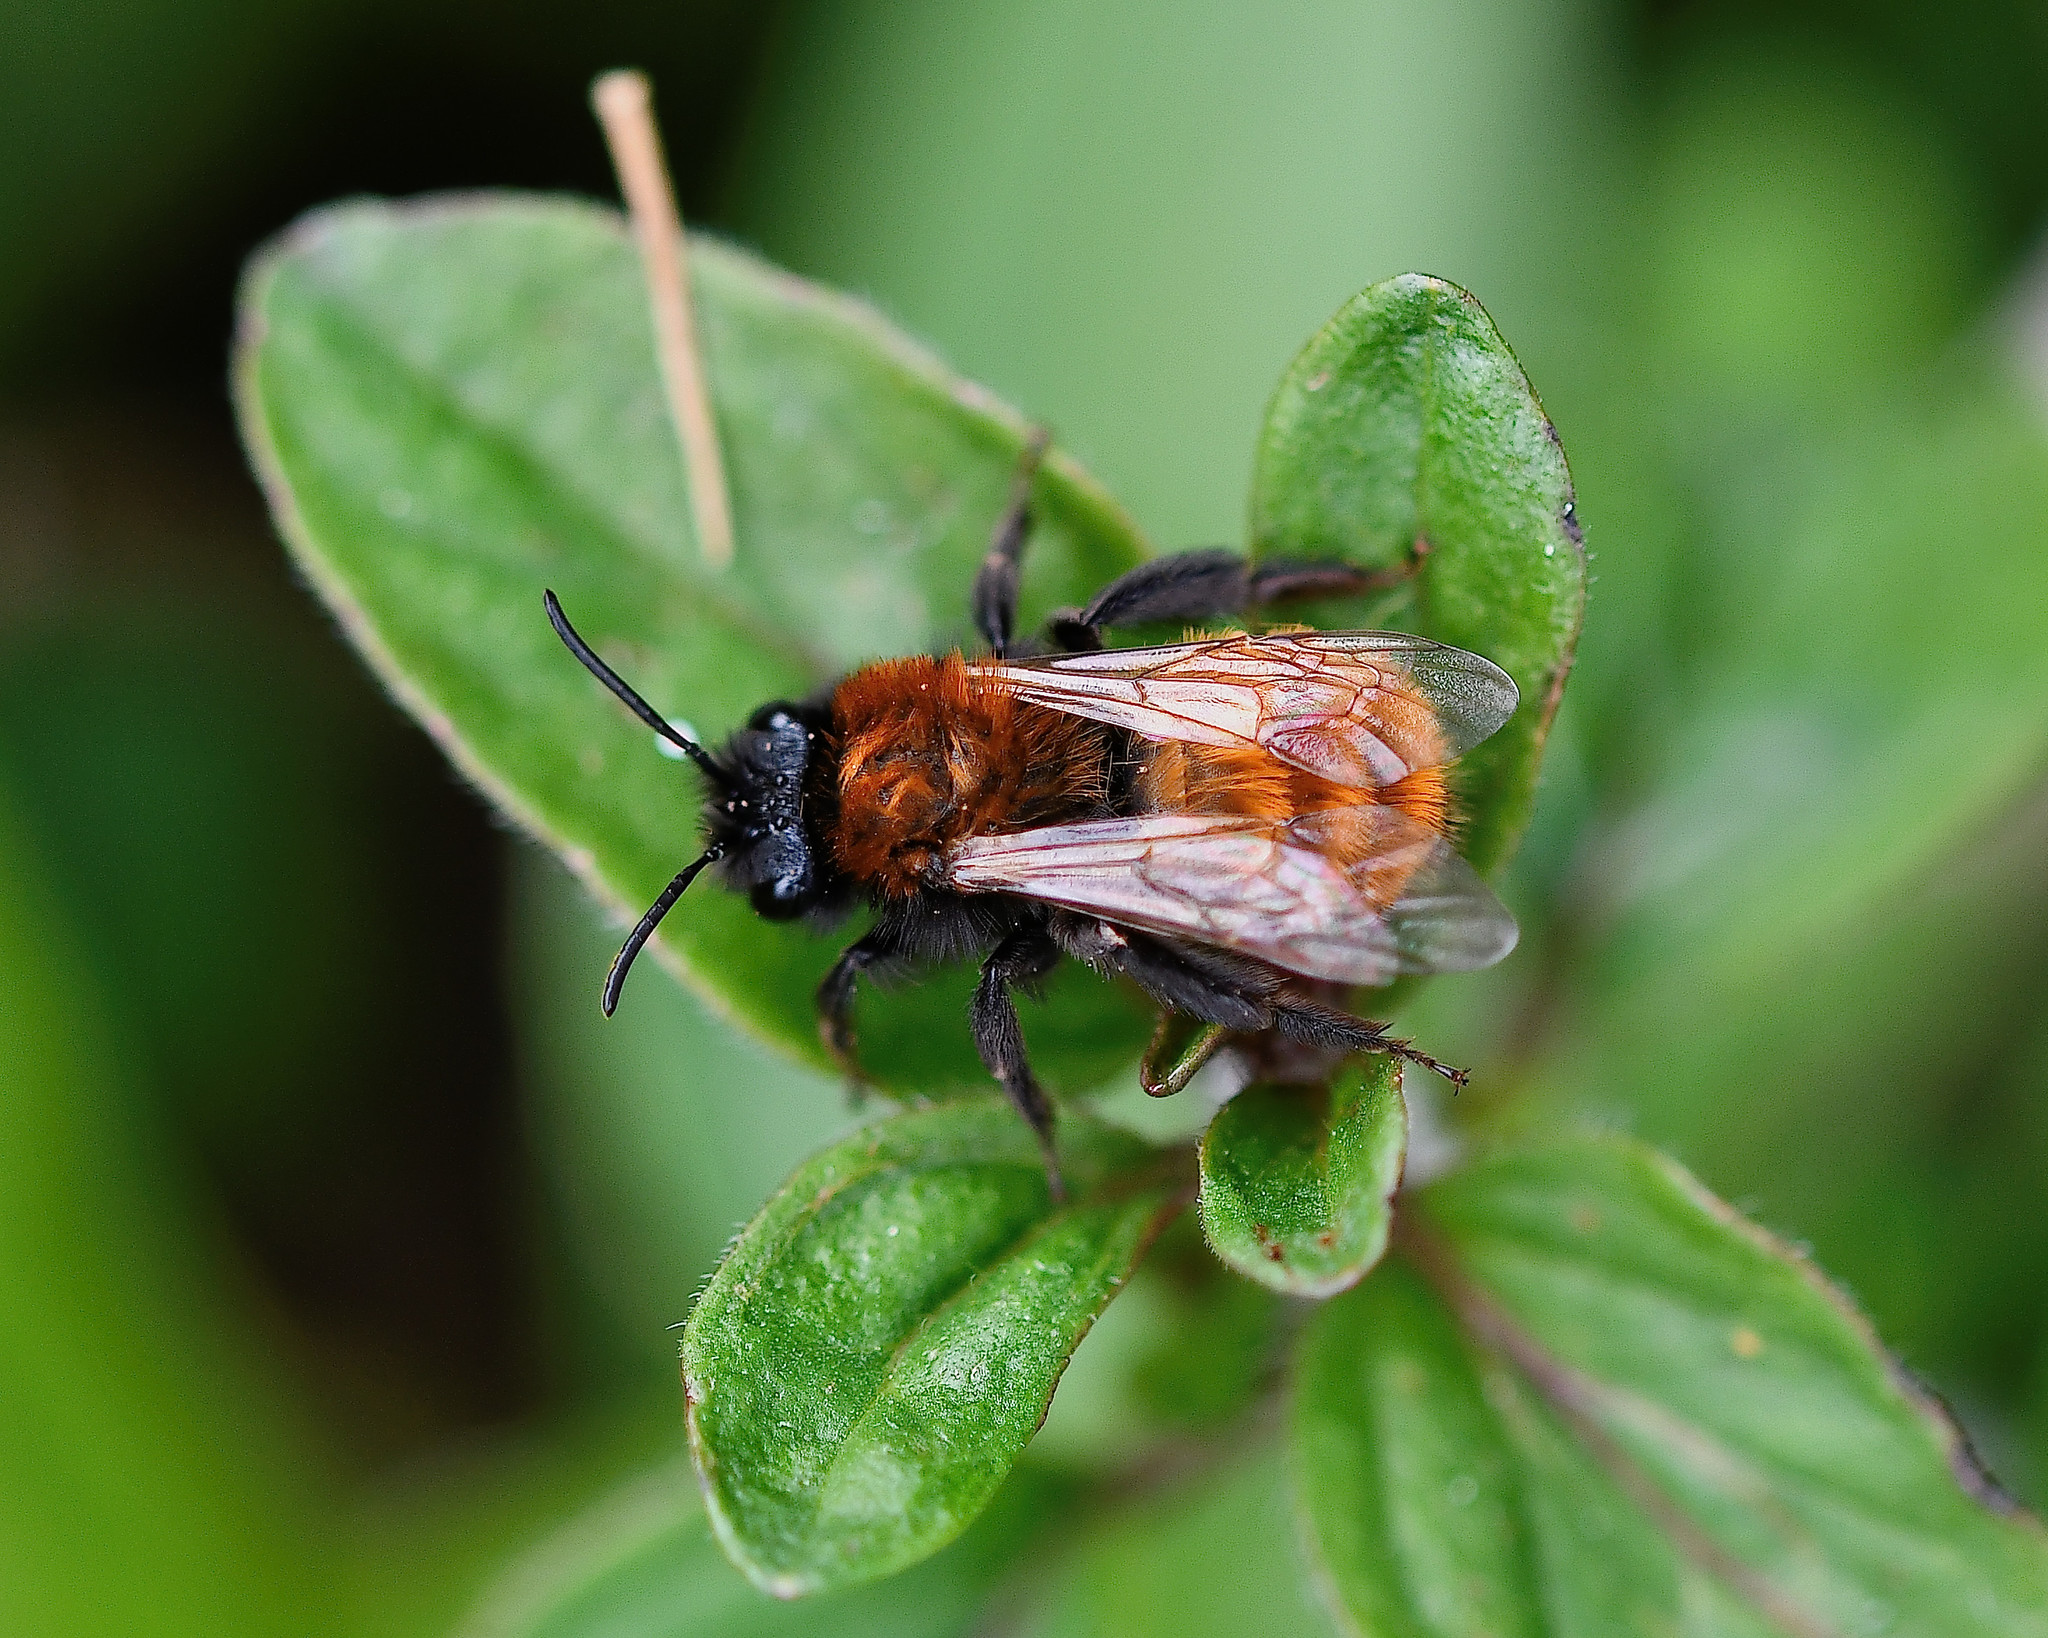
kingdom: Animalia
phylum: Arthropoda
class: Insecta
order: Hymenoptera
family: Andrenidae
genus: Andrena
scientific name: Andrena fulva
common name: Tawny mining bee
